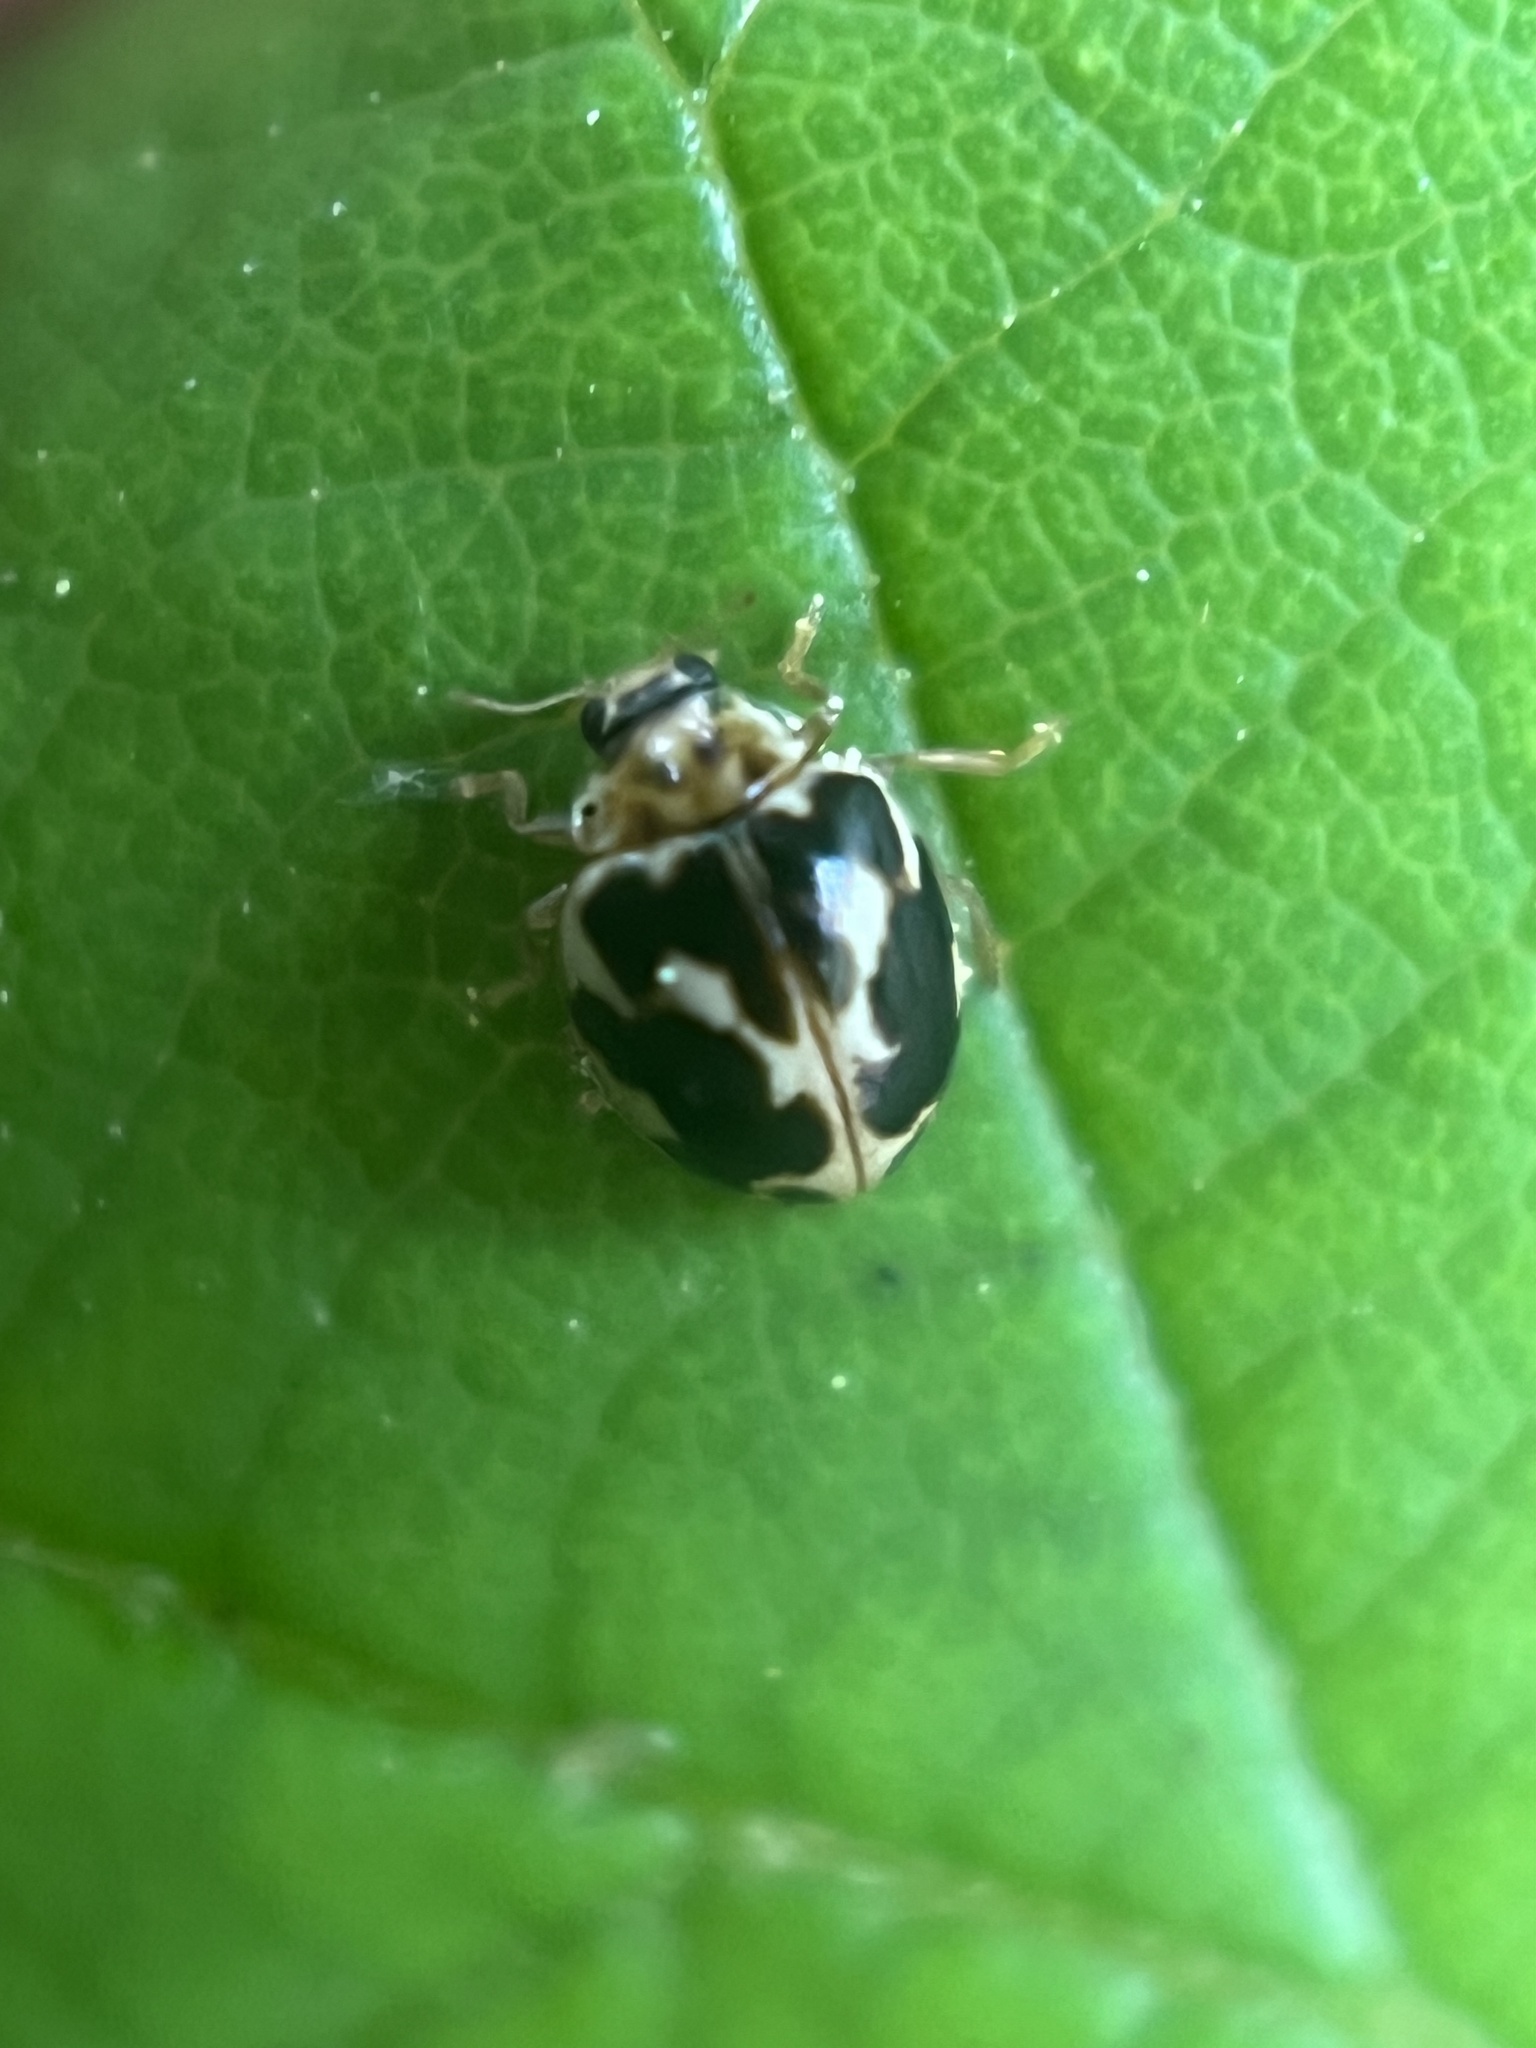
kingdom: Animalia
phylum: Arthropoda
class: Insecta
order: Coleoptera
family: Coccinellidae
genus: Psyllobora
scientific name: Psyllobora vigintimaculata
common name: Ladybird beetle
